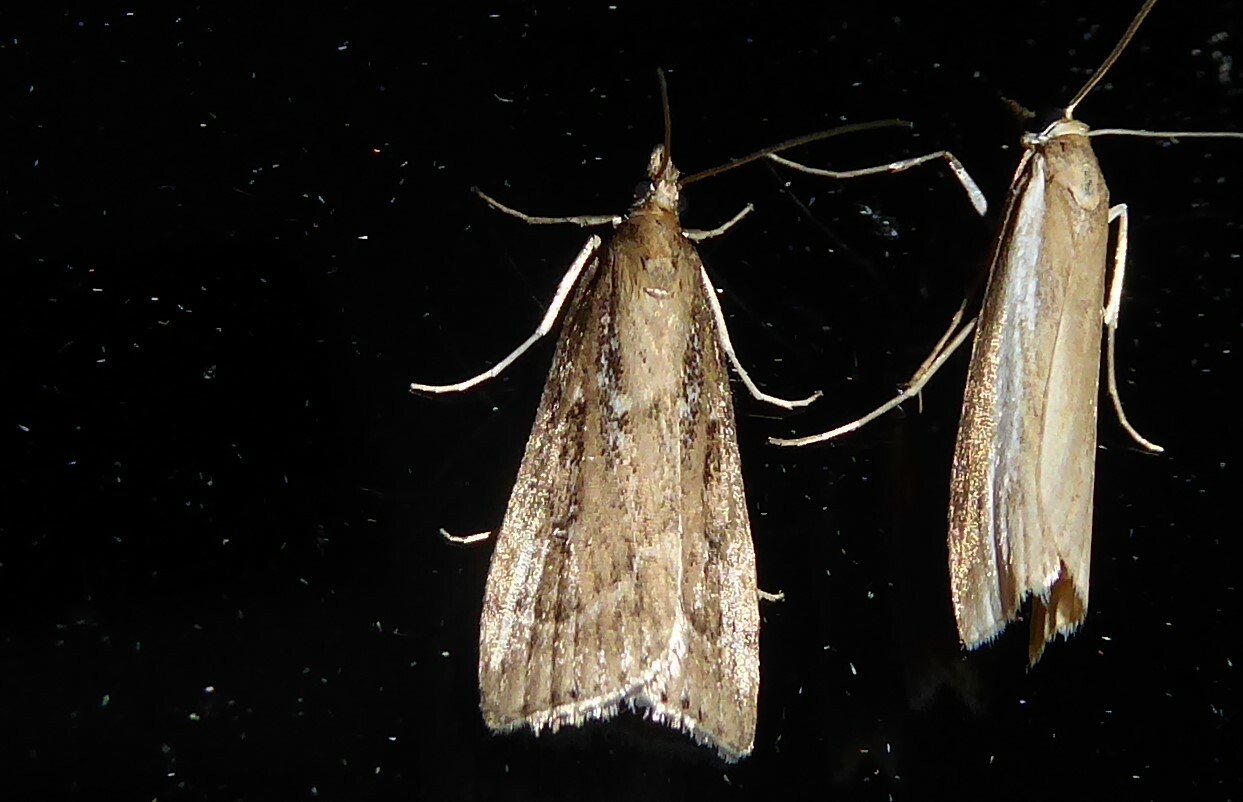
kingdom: Animalia
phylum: Arthropoda
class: Insecta
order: Lepidoptera
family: Crambidae
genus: Eudonia
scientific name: Eudonia octophora
